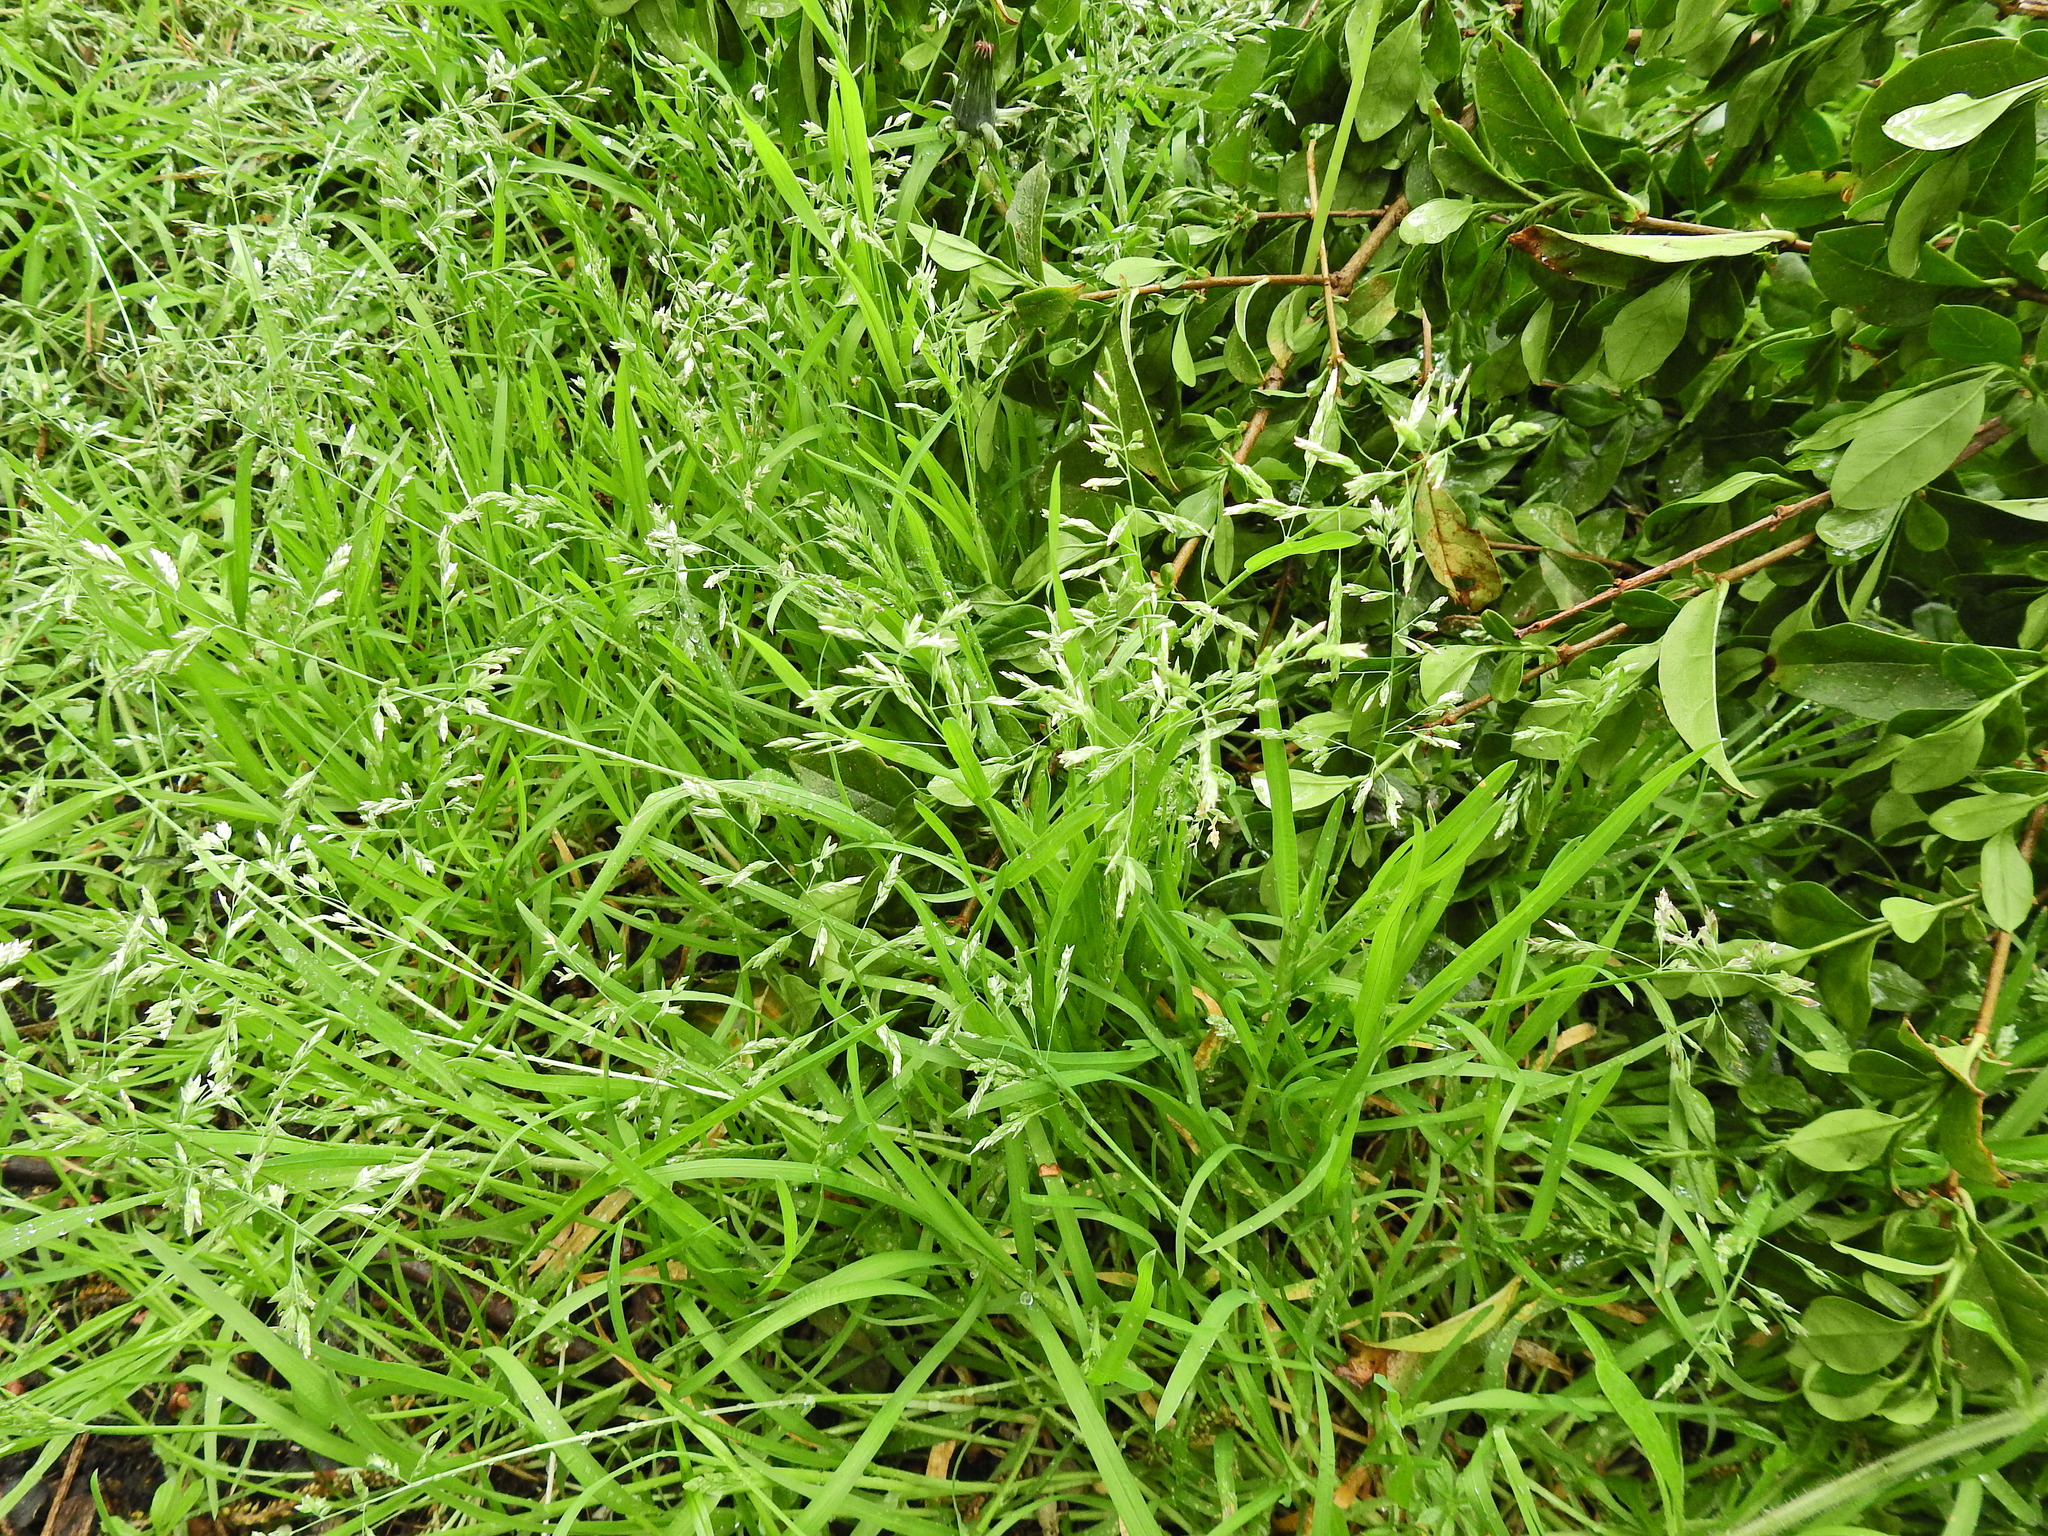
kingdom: Plantae
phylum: Tracheophyta
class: Liliopsida
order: Poales
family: Poaceae
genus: Poa
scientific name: Poa annua
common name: Annual bluegrass
